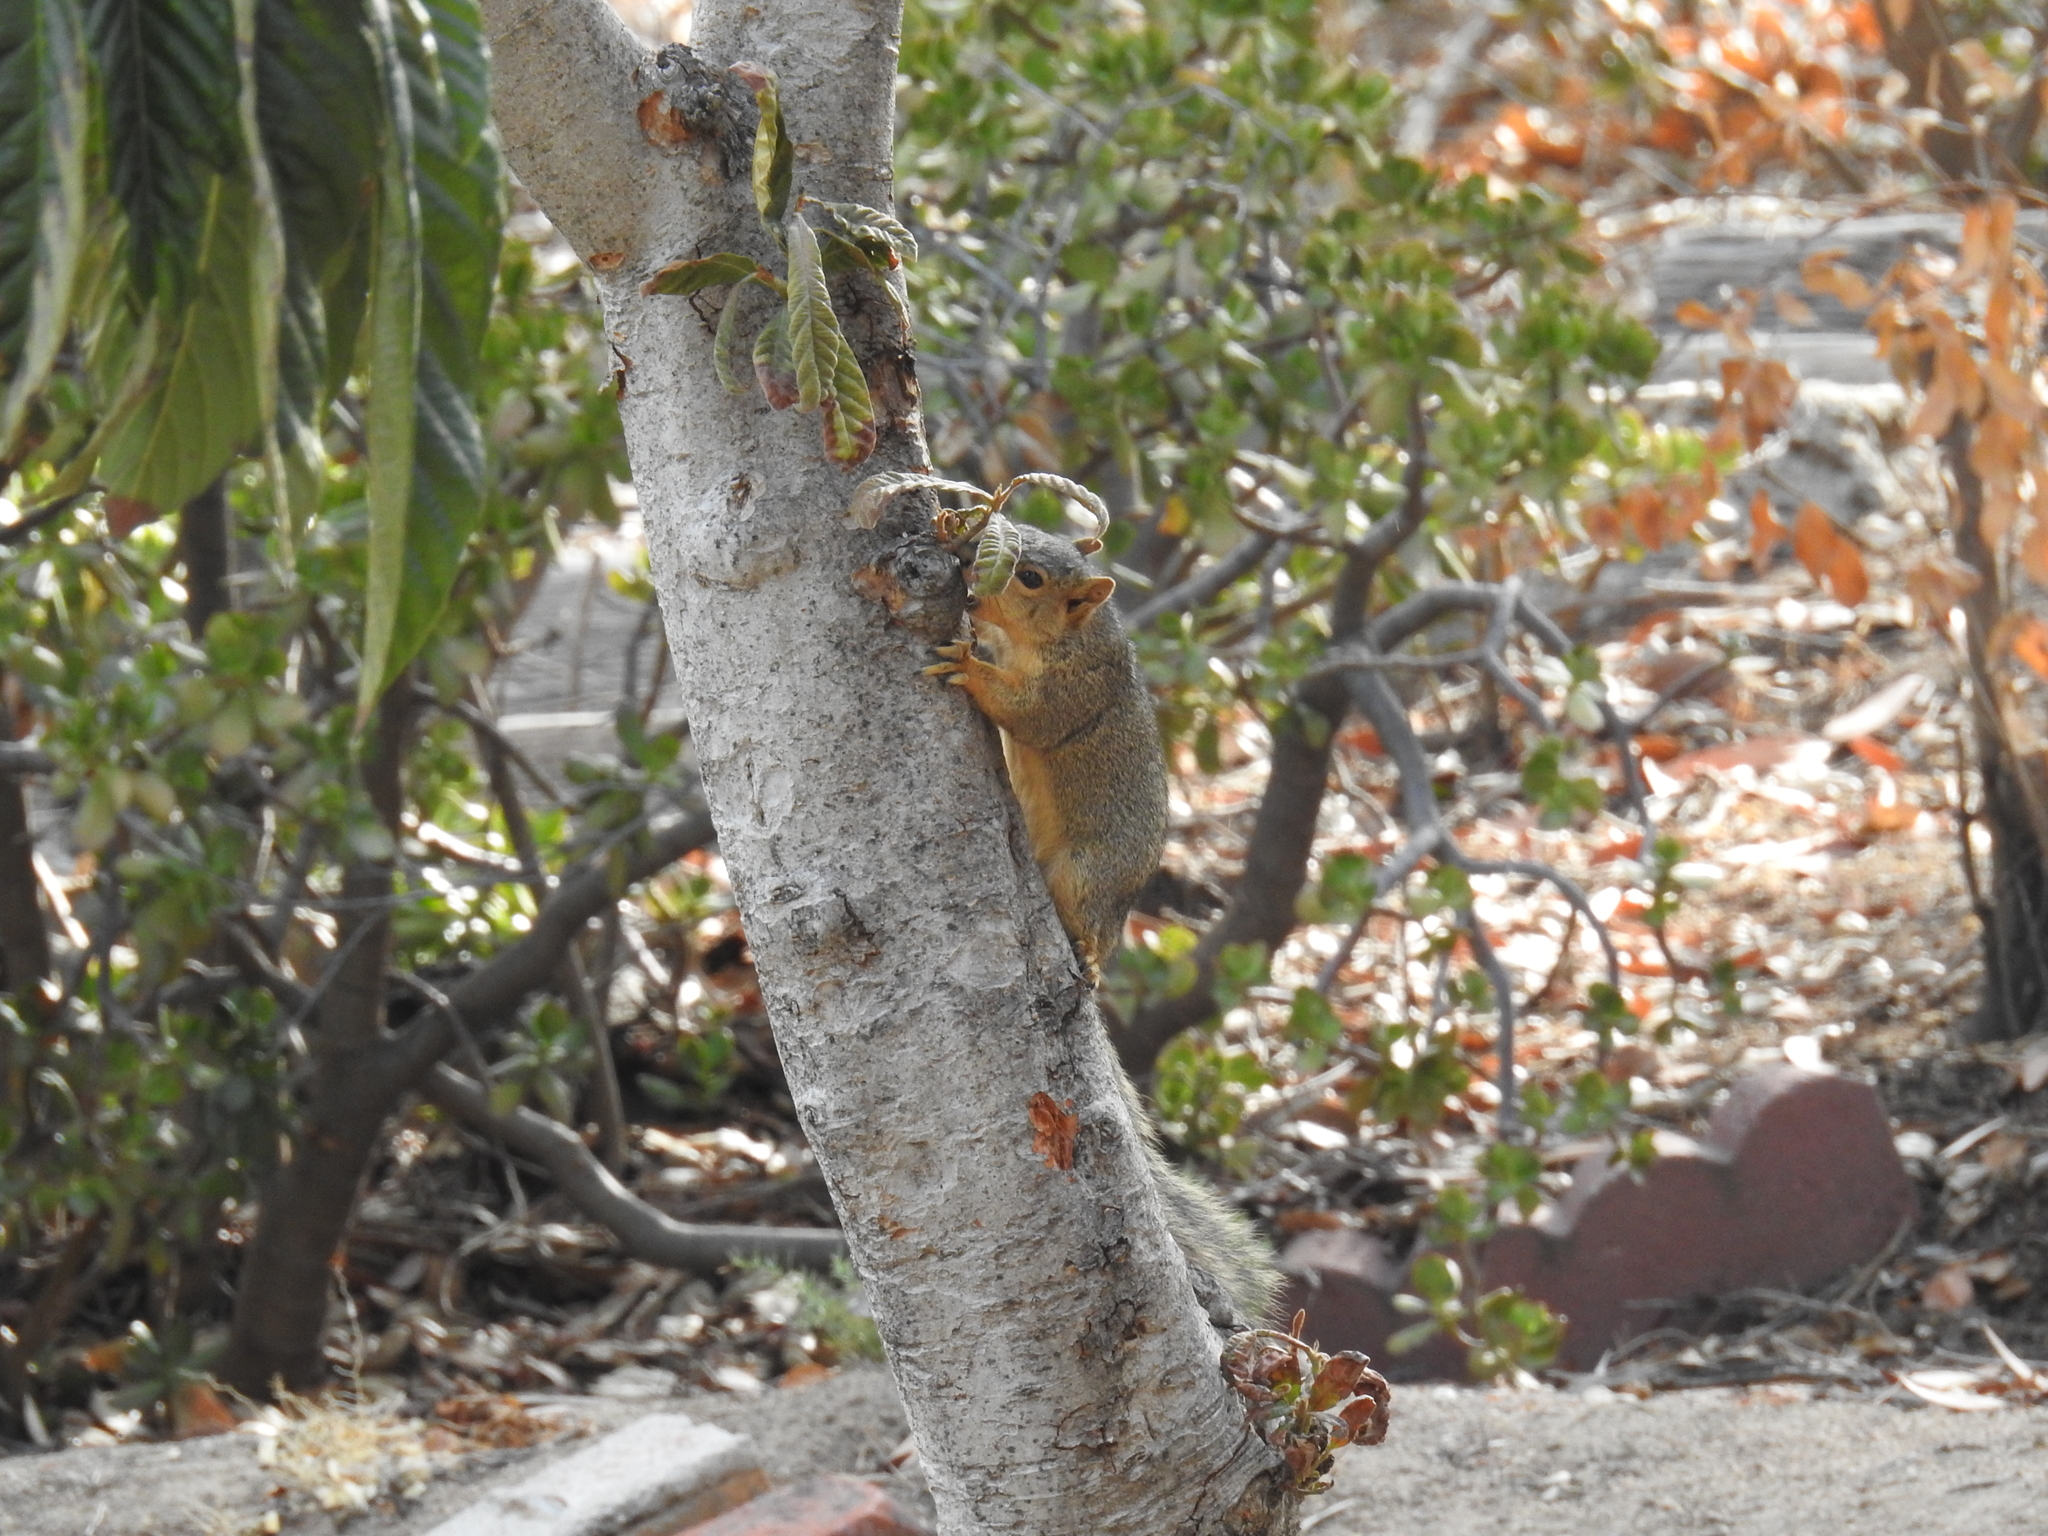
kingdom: Animalia
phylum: Chordata
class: Mammalia
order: Rodentia
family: Sciuridae
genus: Sciurus
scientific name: Sciurus niger
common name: Fox squirrel
